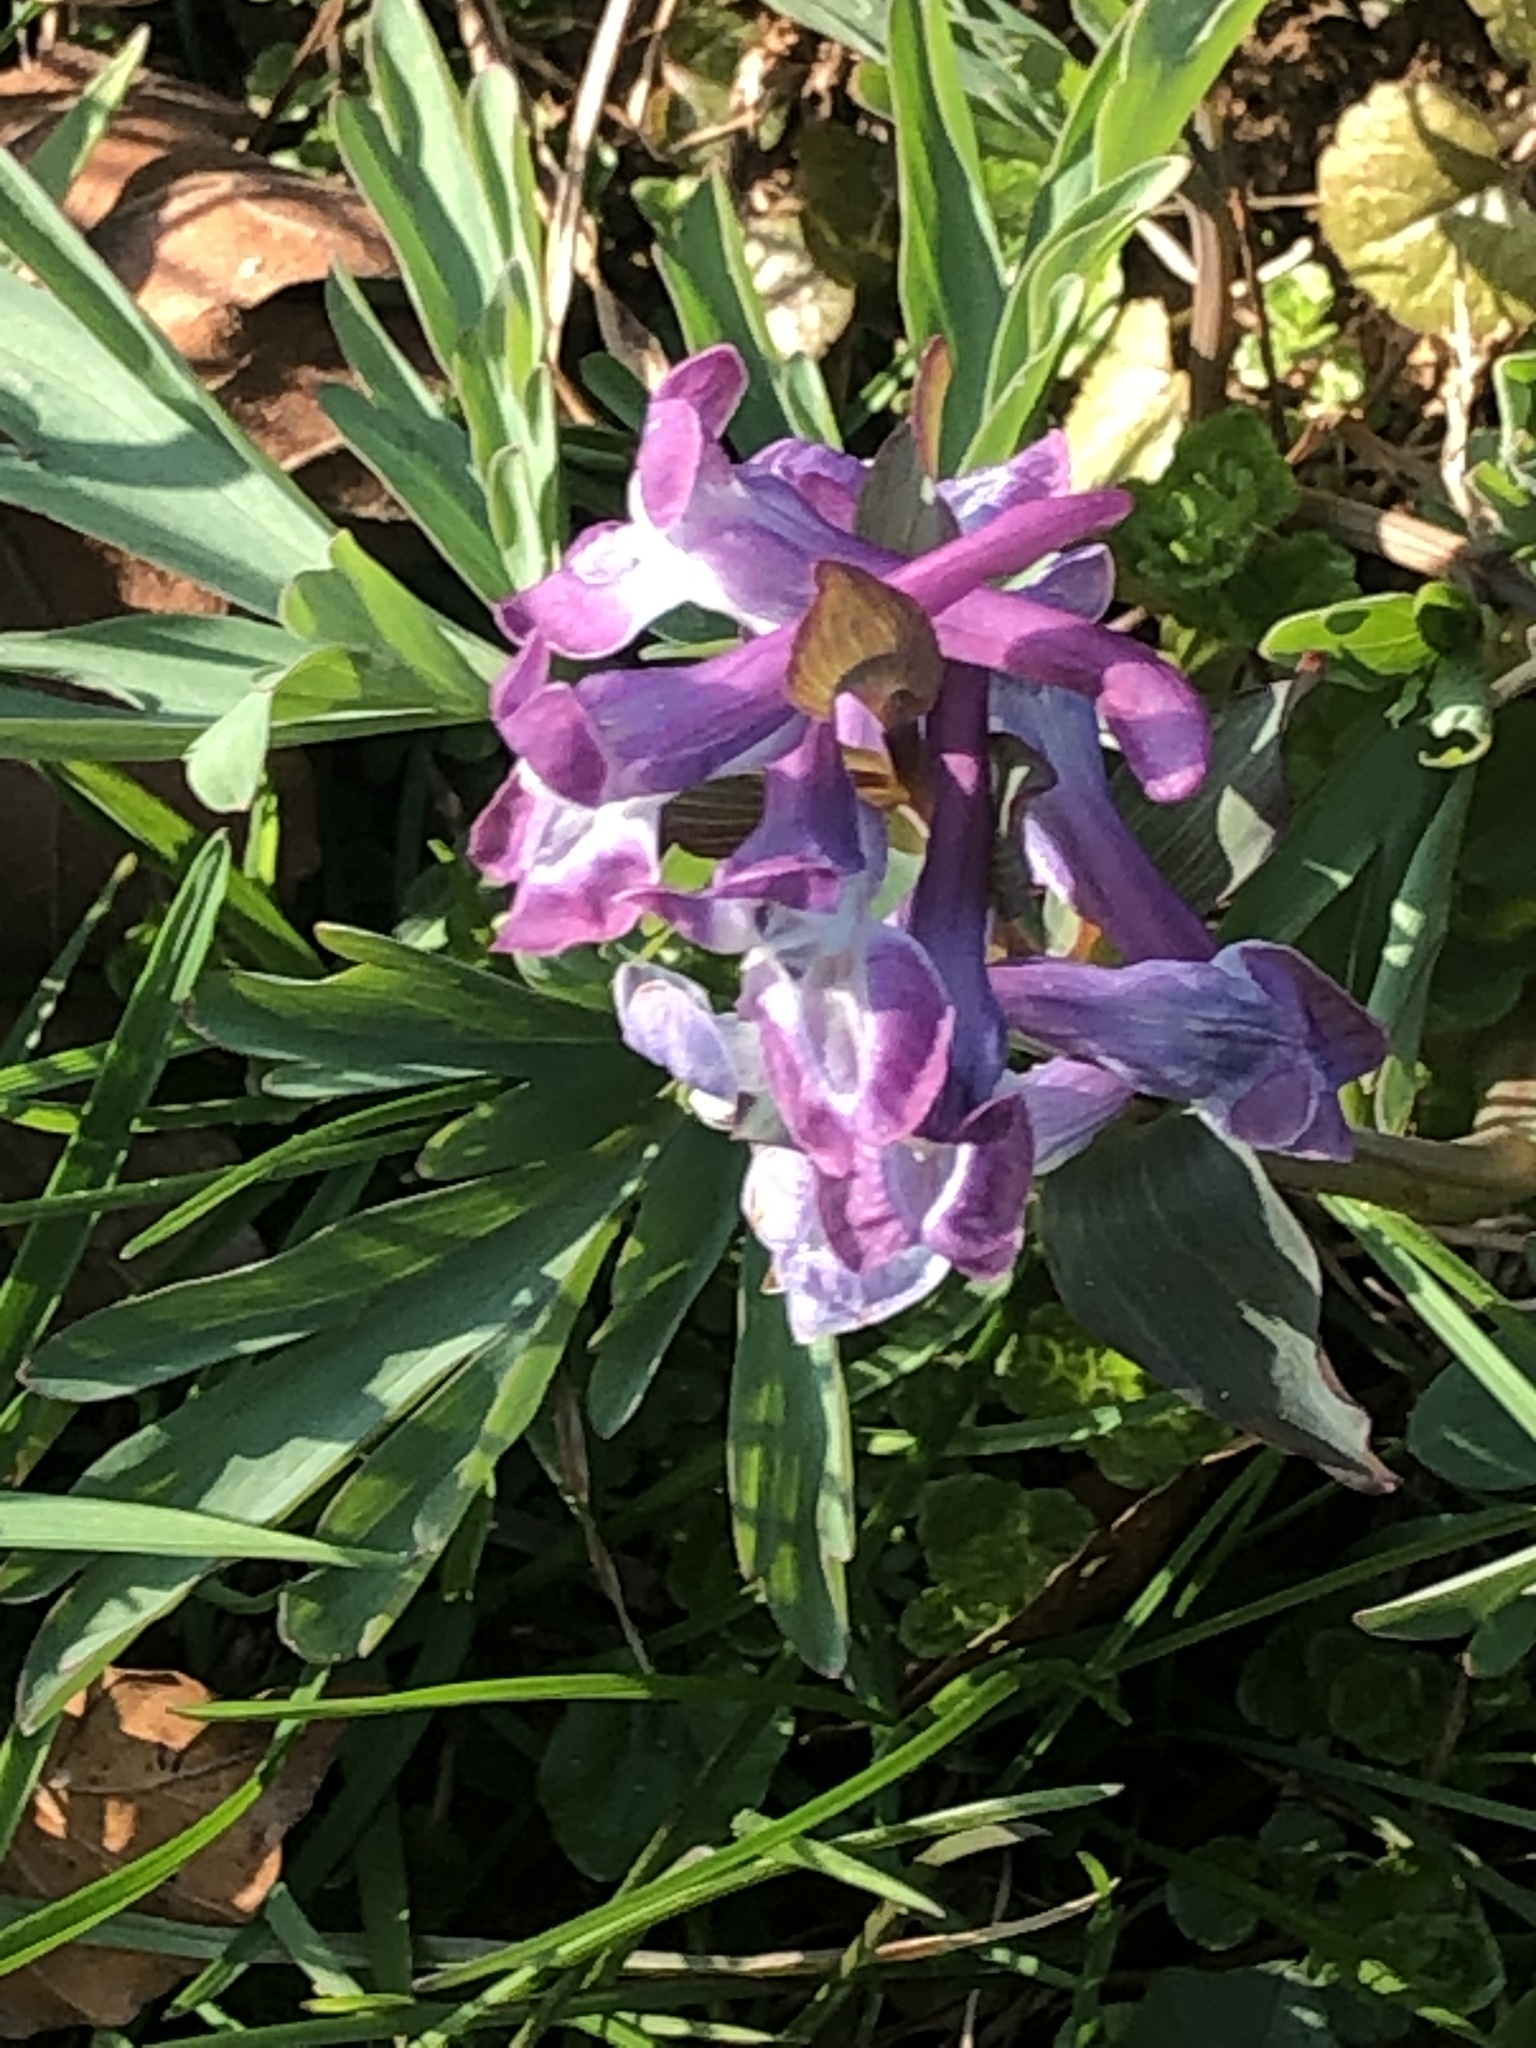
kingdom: Plantae
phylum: Tracheophyta
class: Magnoliopsida
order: Ranunculales
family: Papaveraceae
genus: Corydalis
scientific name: Corydalis cava
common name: Hollowroot
